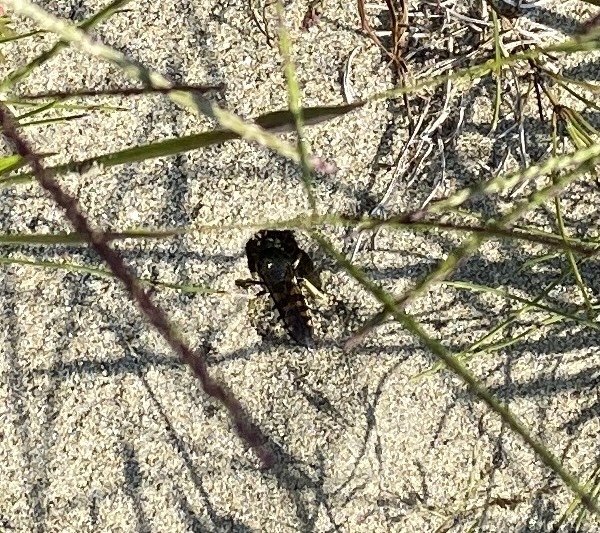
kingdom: Animalia
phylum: Arthropoda
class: Insecta
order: Hymenoptera
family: Crabronidae
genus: Bicyrtes
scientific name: Bicyrtes quadrifasciatus
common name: Four-banded stink bug hunter wasp
